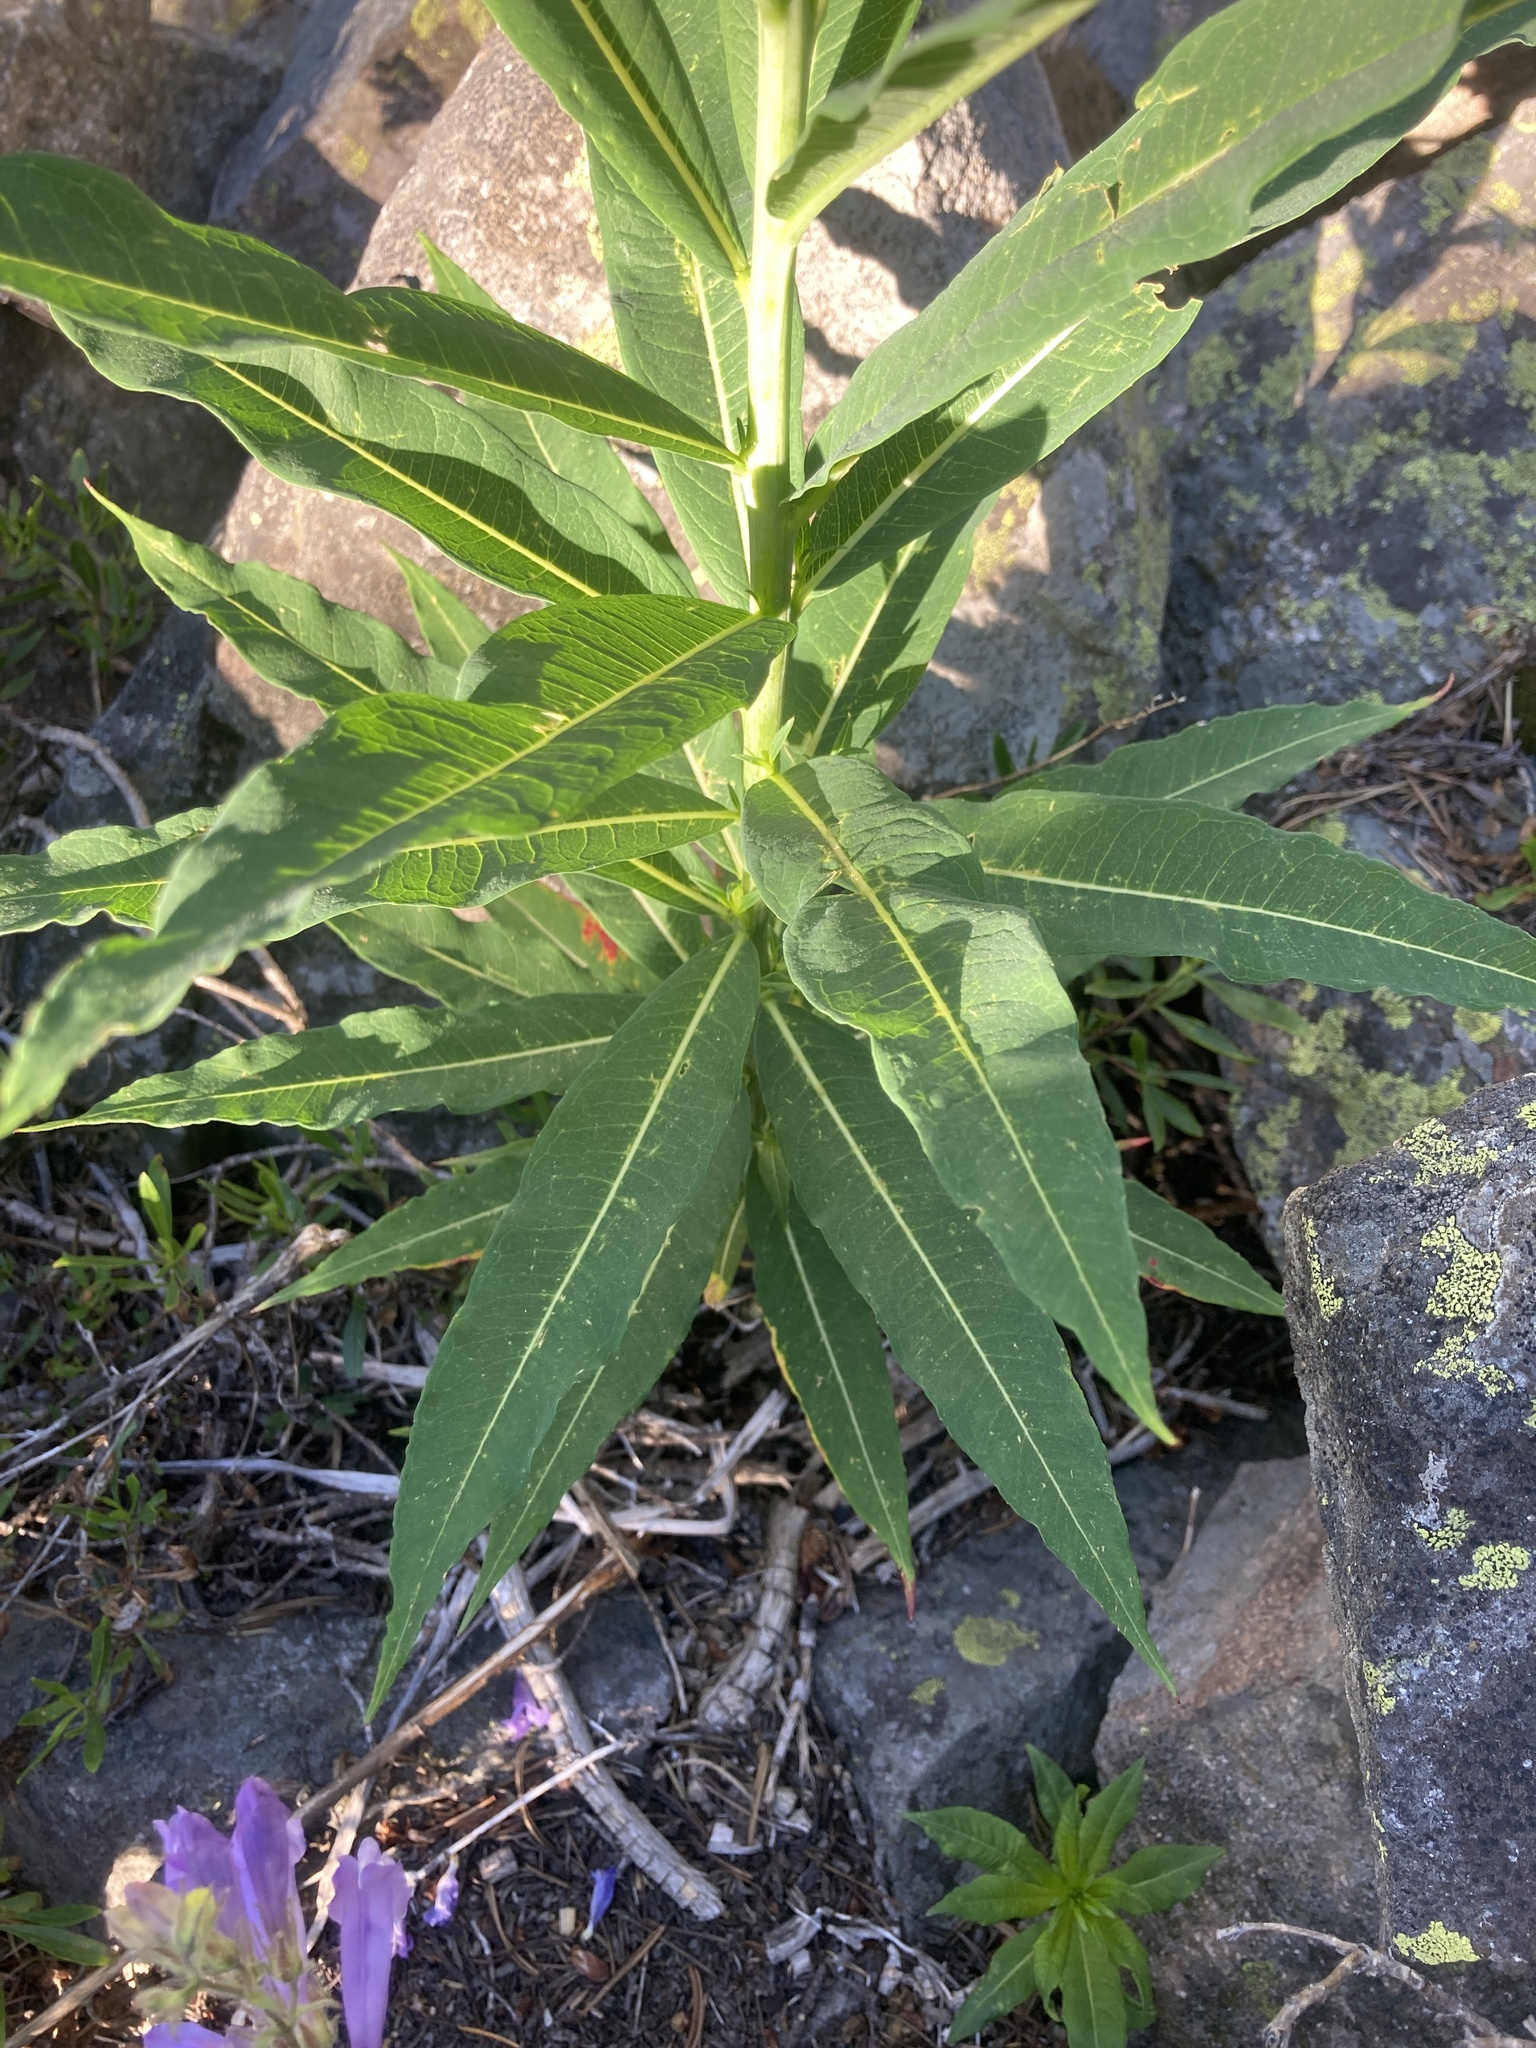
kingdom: Plantae
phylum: Tracheophyta
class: Magnoliopsida
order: Myrtales
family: Onagraceae
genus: Chamaenerion
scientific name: Chamaenerion angustifolium
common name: Fireweed
